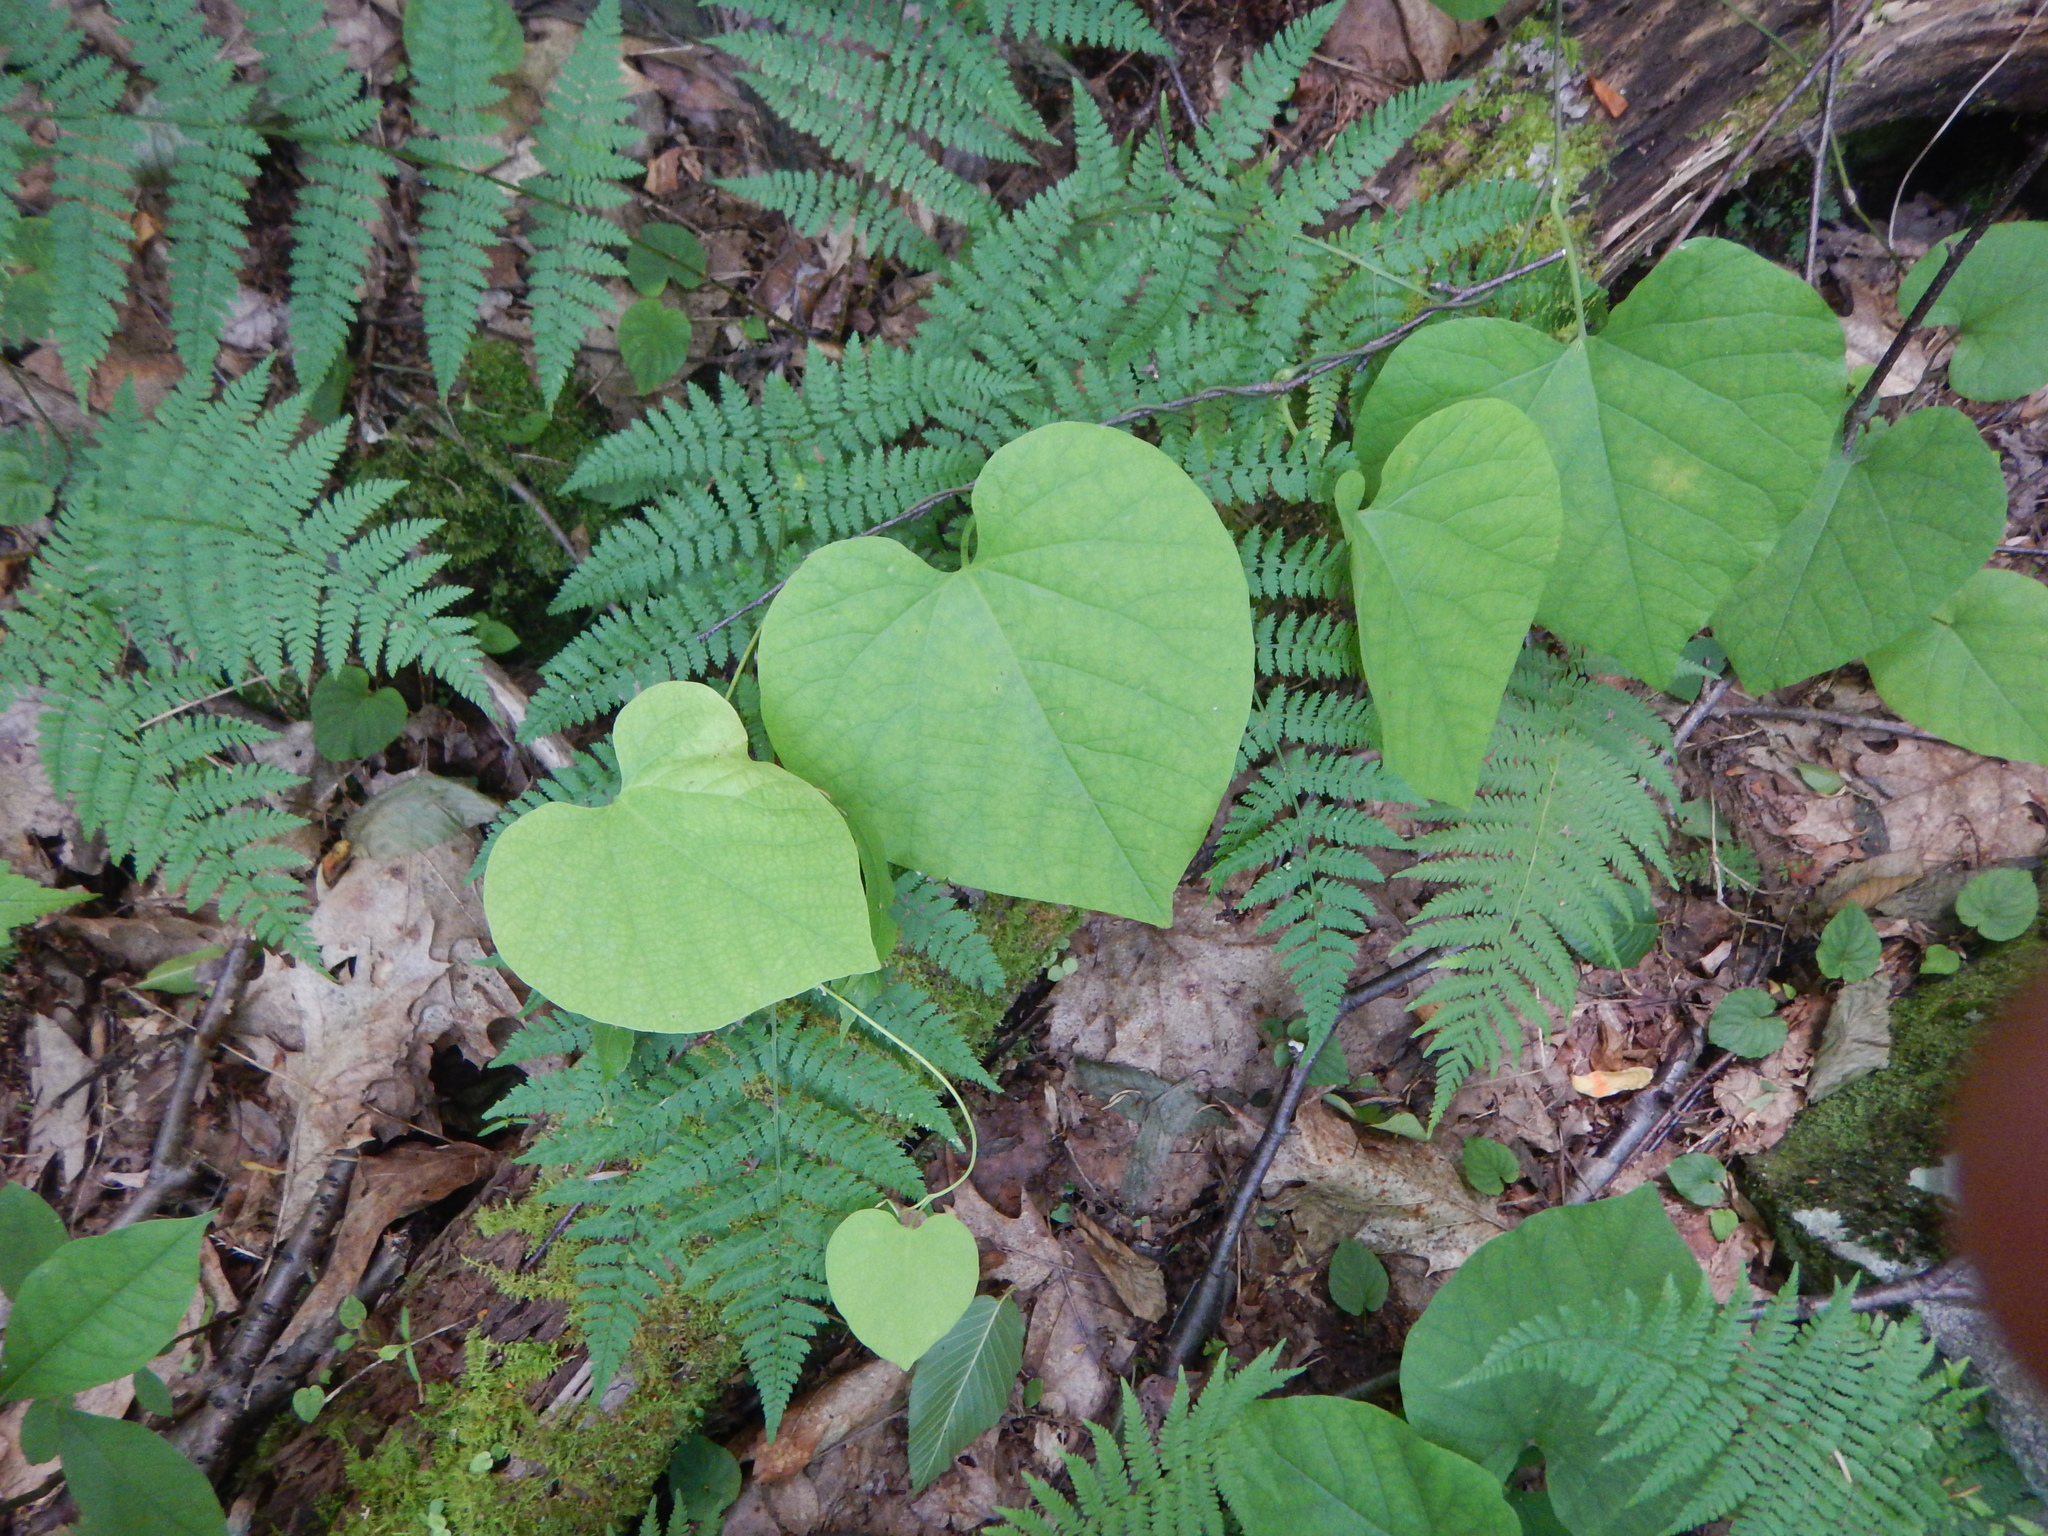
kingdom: Plantae
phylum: Tracheophyta
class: Magnoliopsida
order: Piperales
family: Aristolochiaceae
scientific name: Aristolochiaceae
